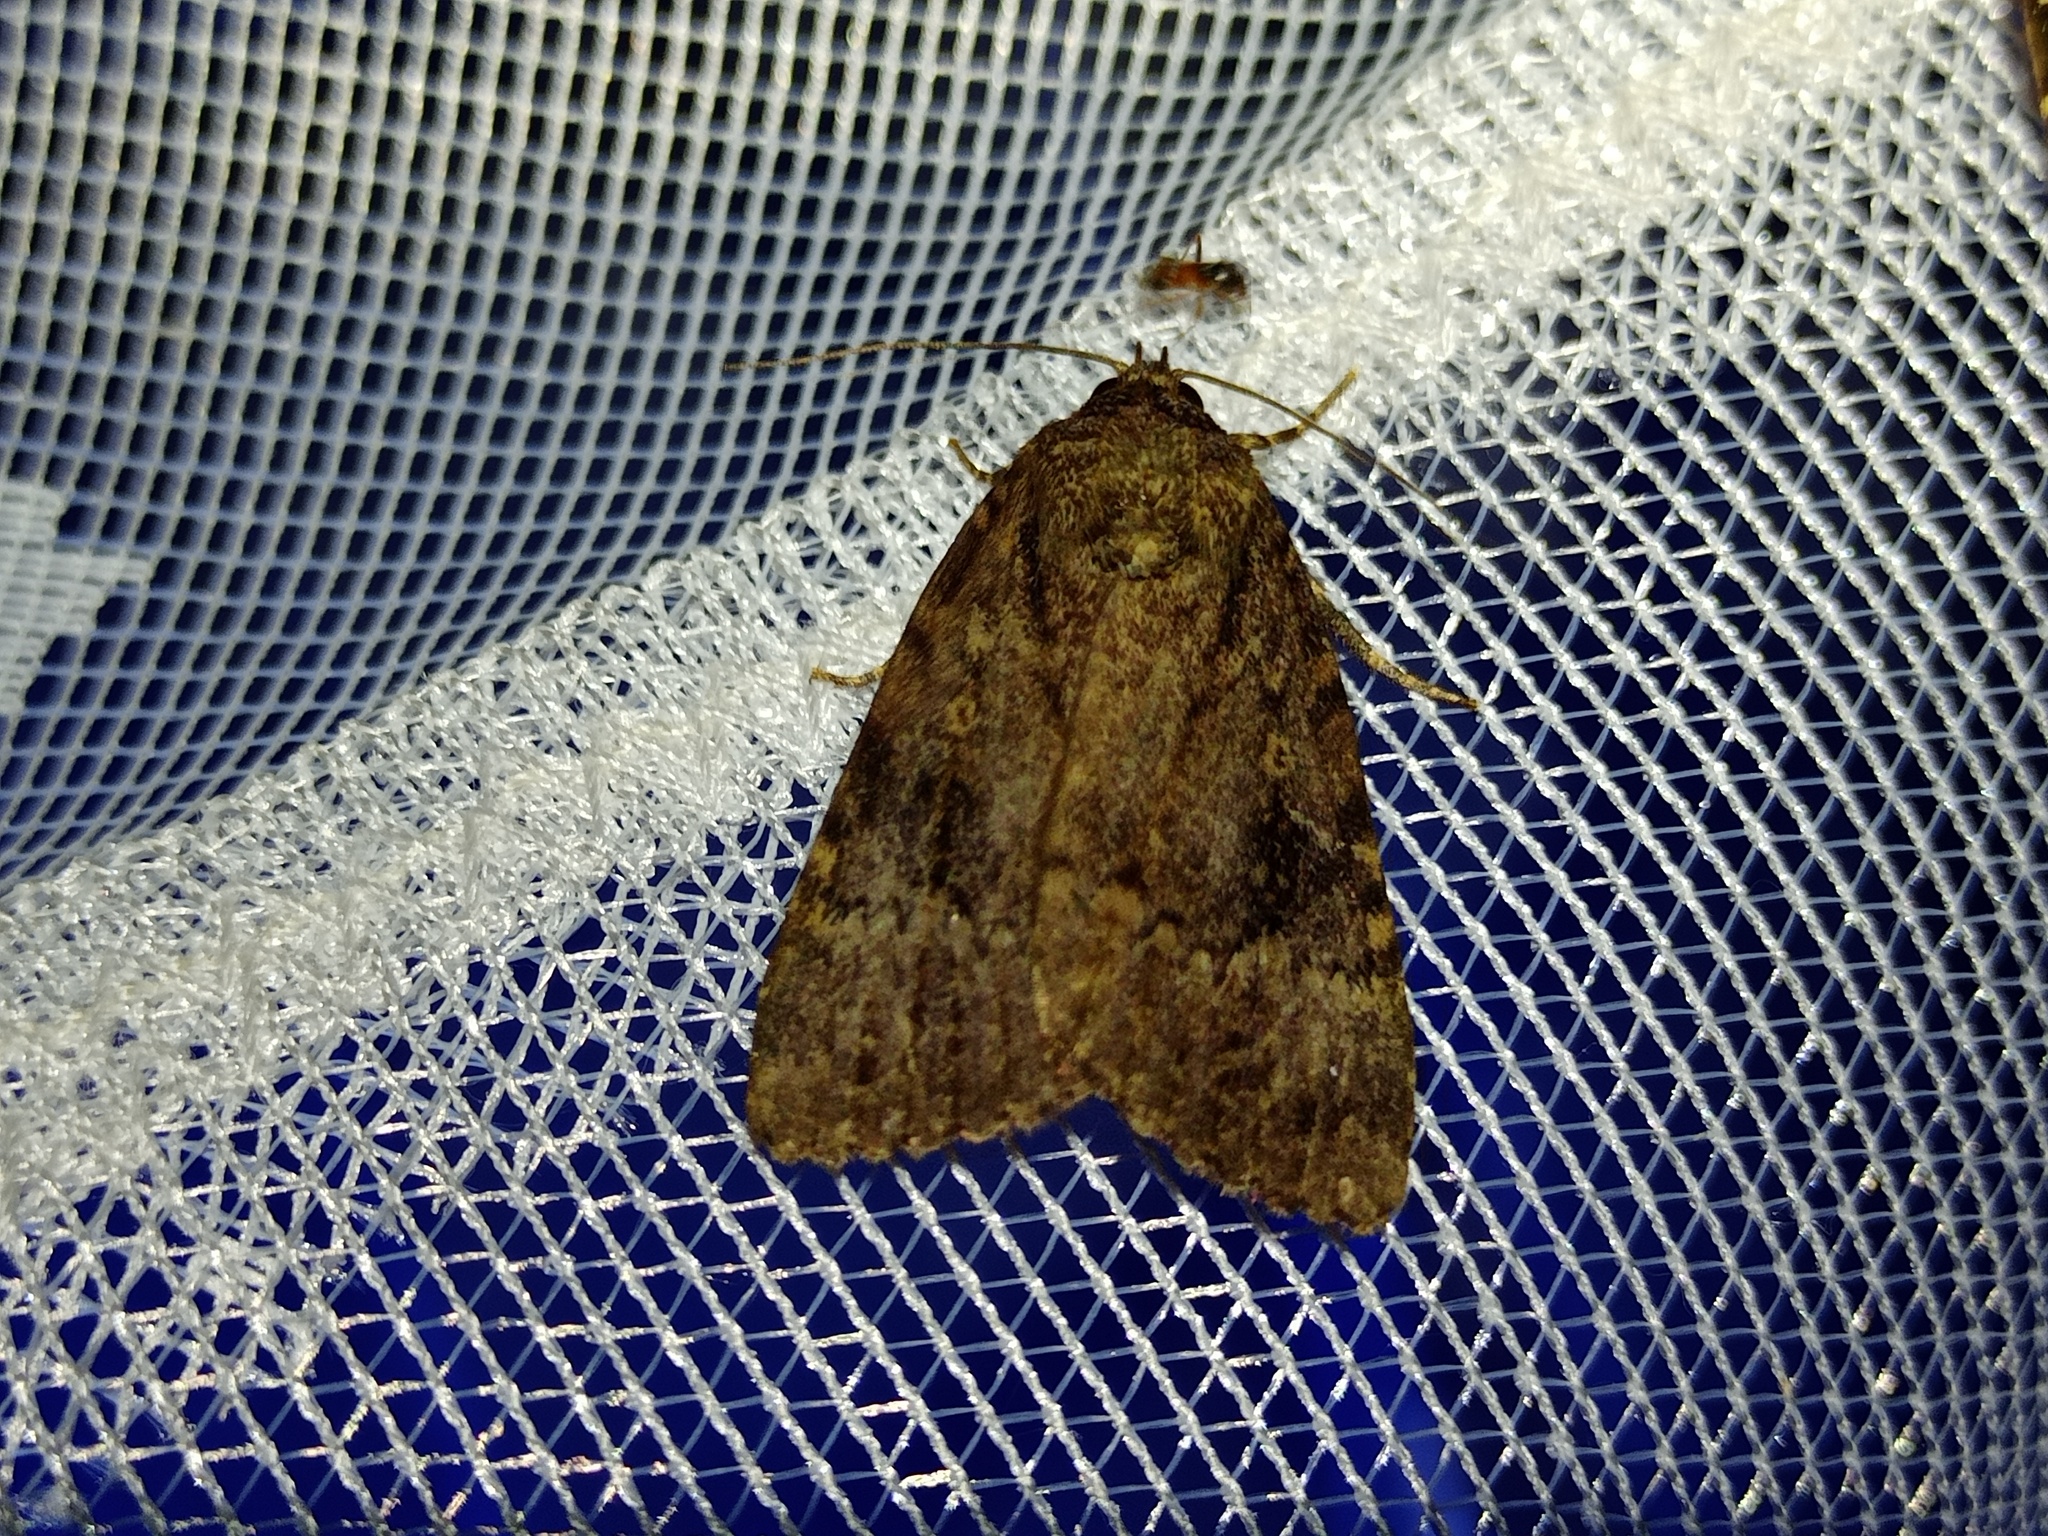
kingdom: Animalia
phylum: Arthropoda
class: Insecta
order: Lepidoptera
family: Noctuidae
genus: Amphipyra
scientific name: Amphipyra pyramidea
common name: Copper underwing
